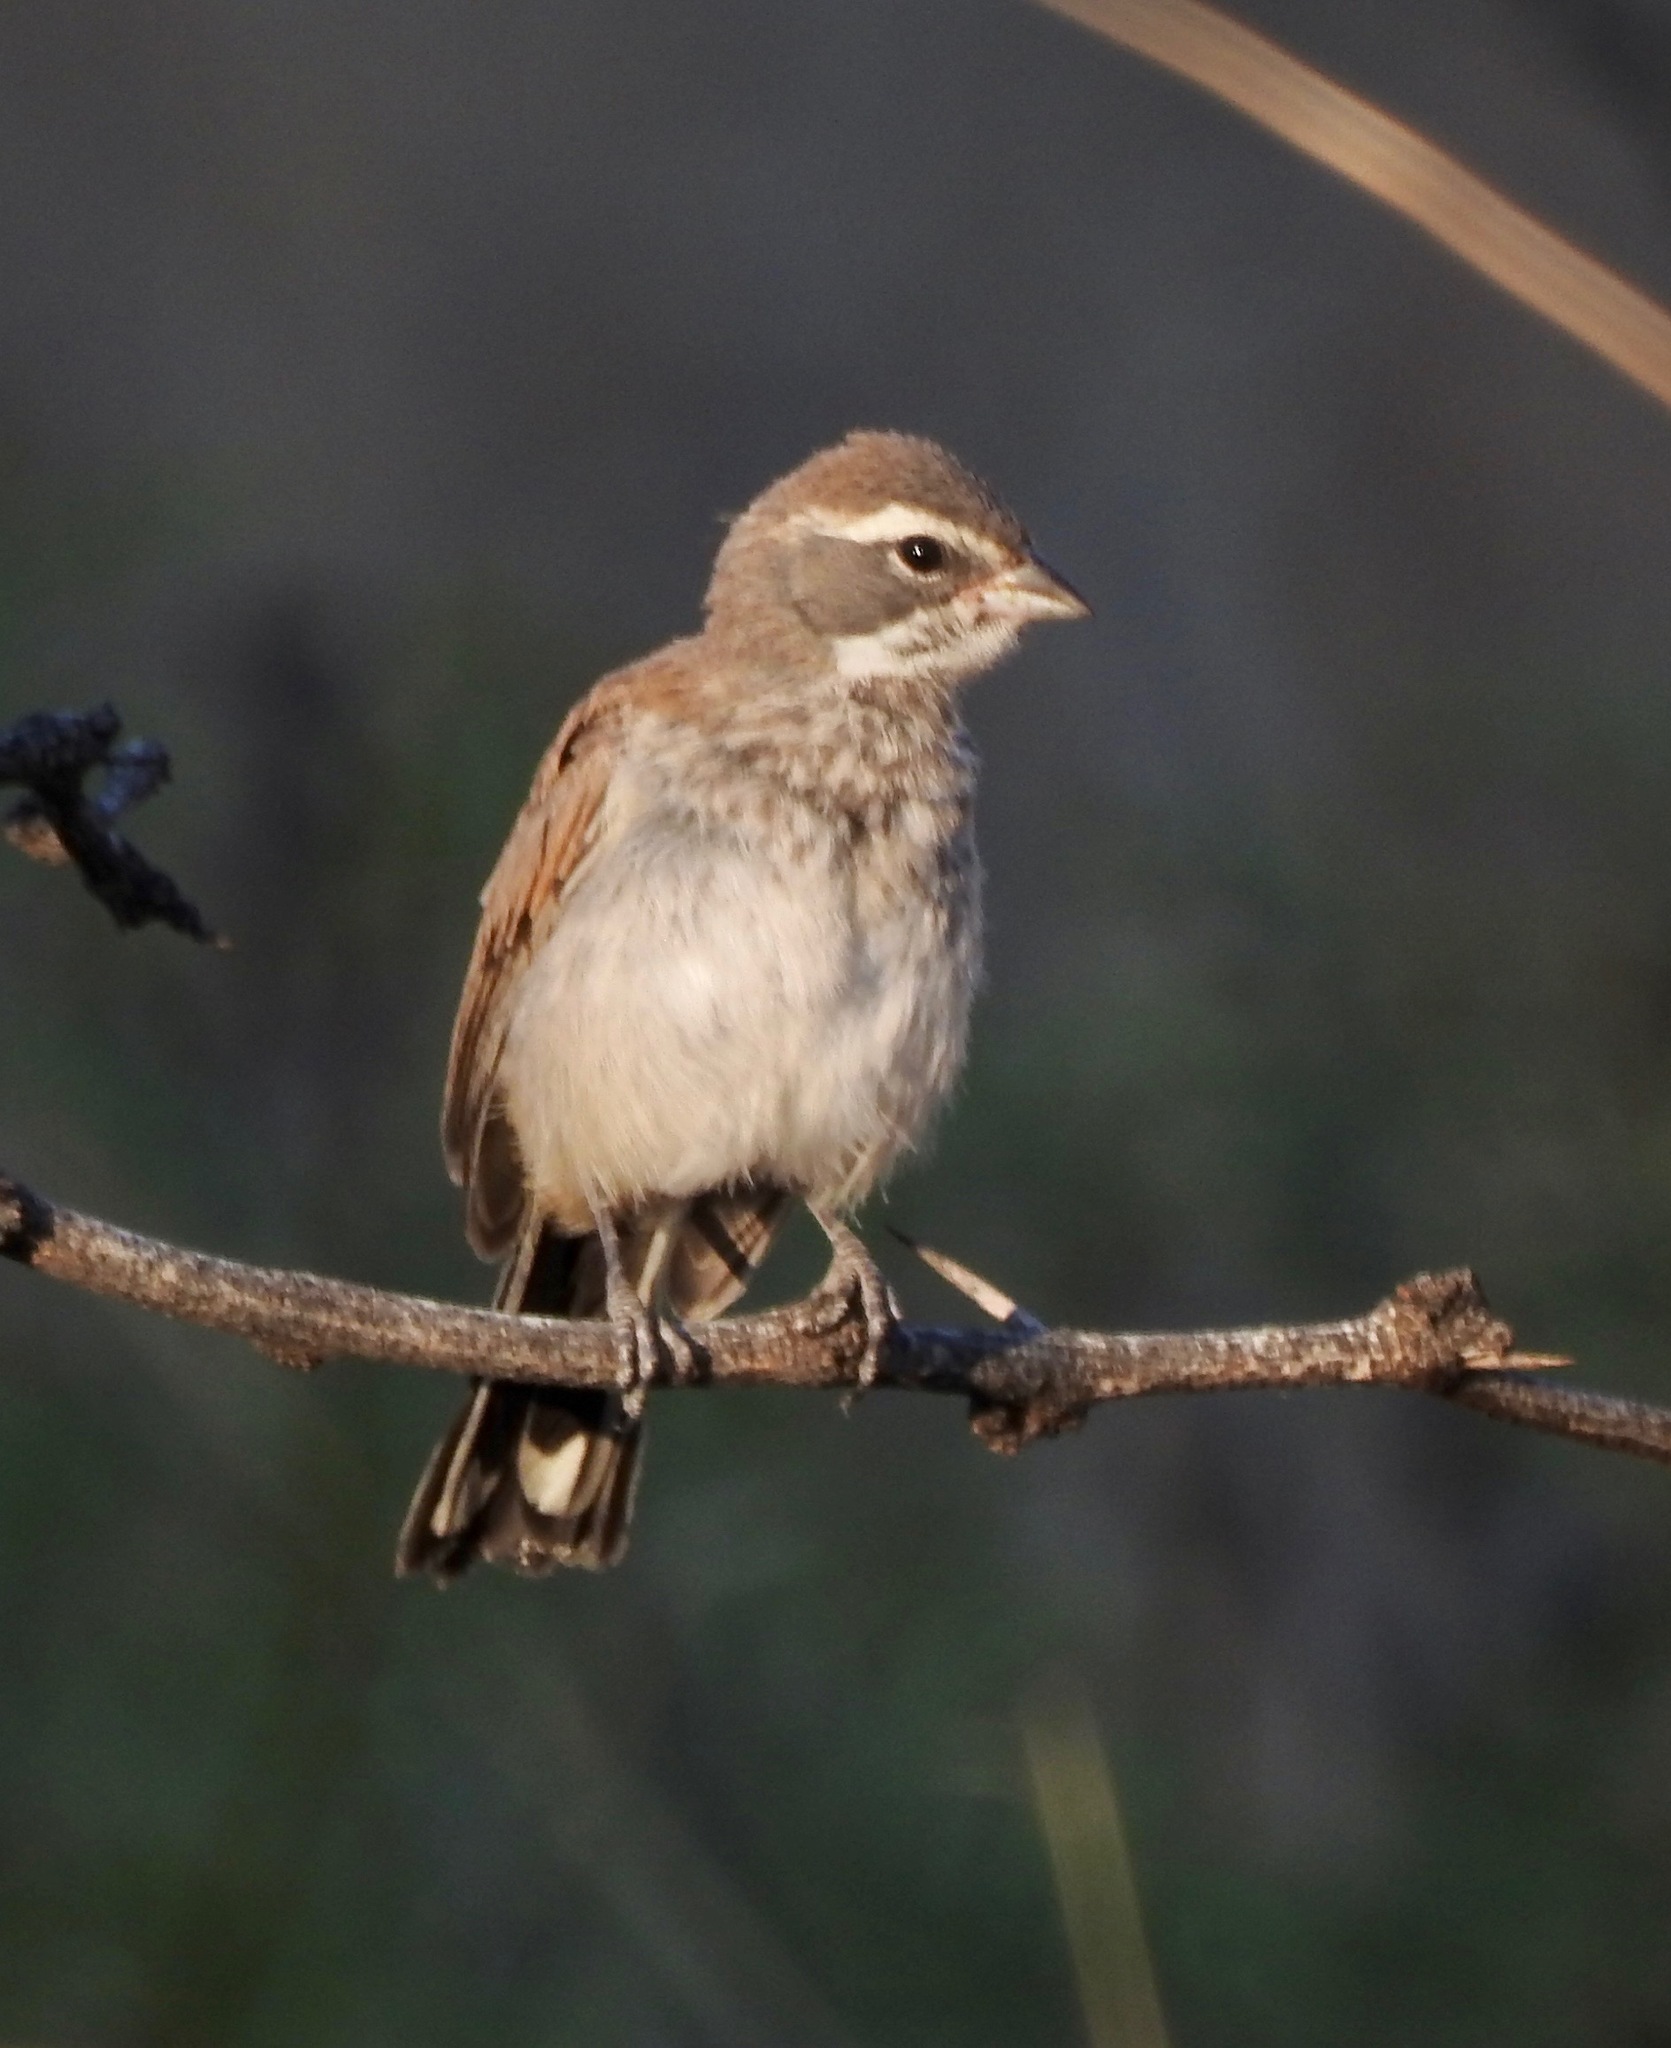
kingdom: Animalia
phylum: Chordata
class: Aves
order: Passeriformes
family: Passerellidae
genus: Amphispiza
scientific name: Amphispiza bilineata
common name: Black-throated sparrow
